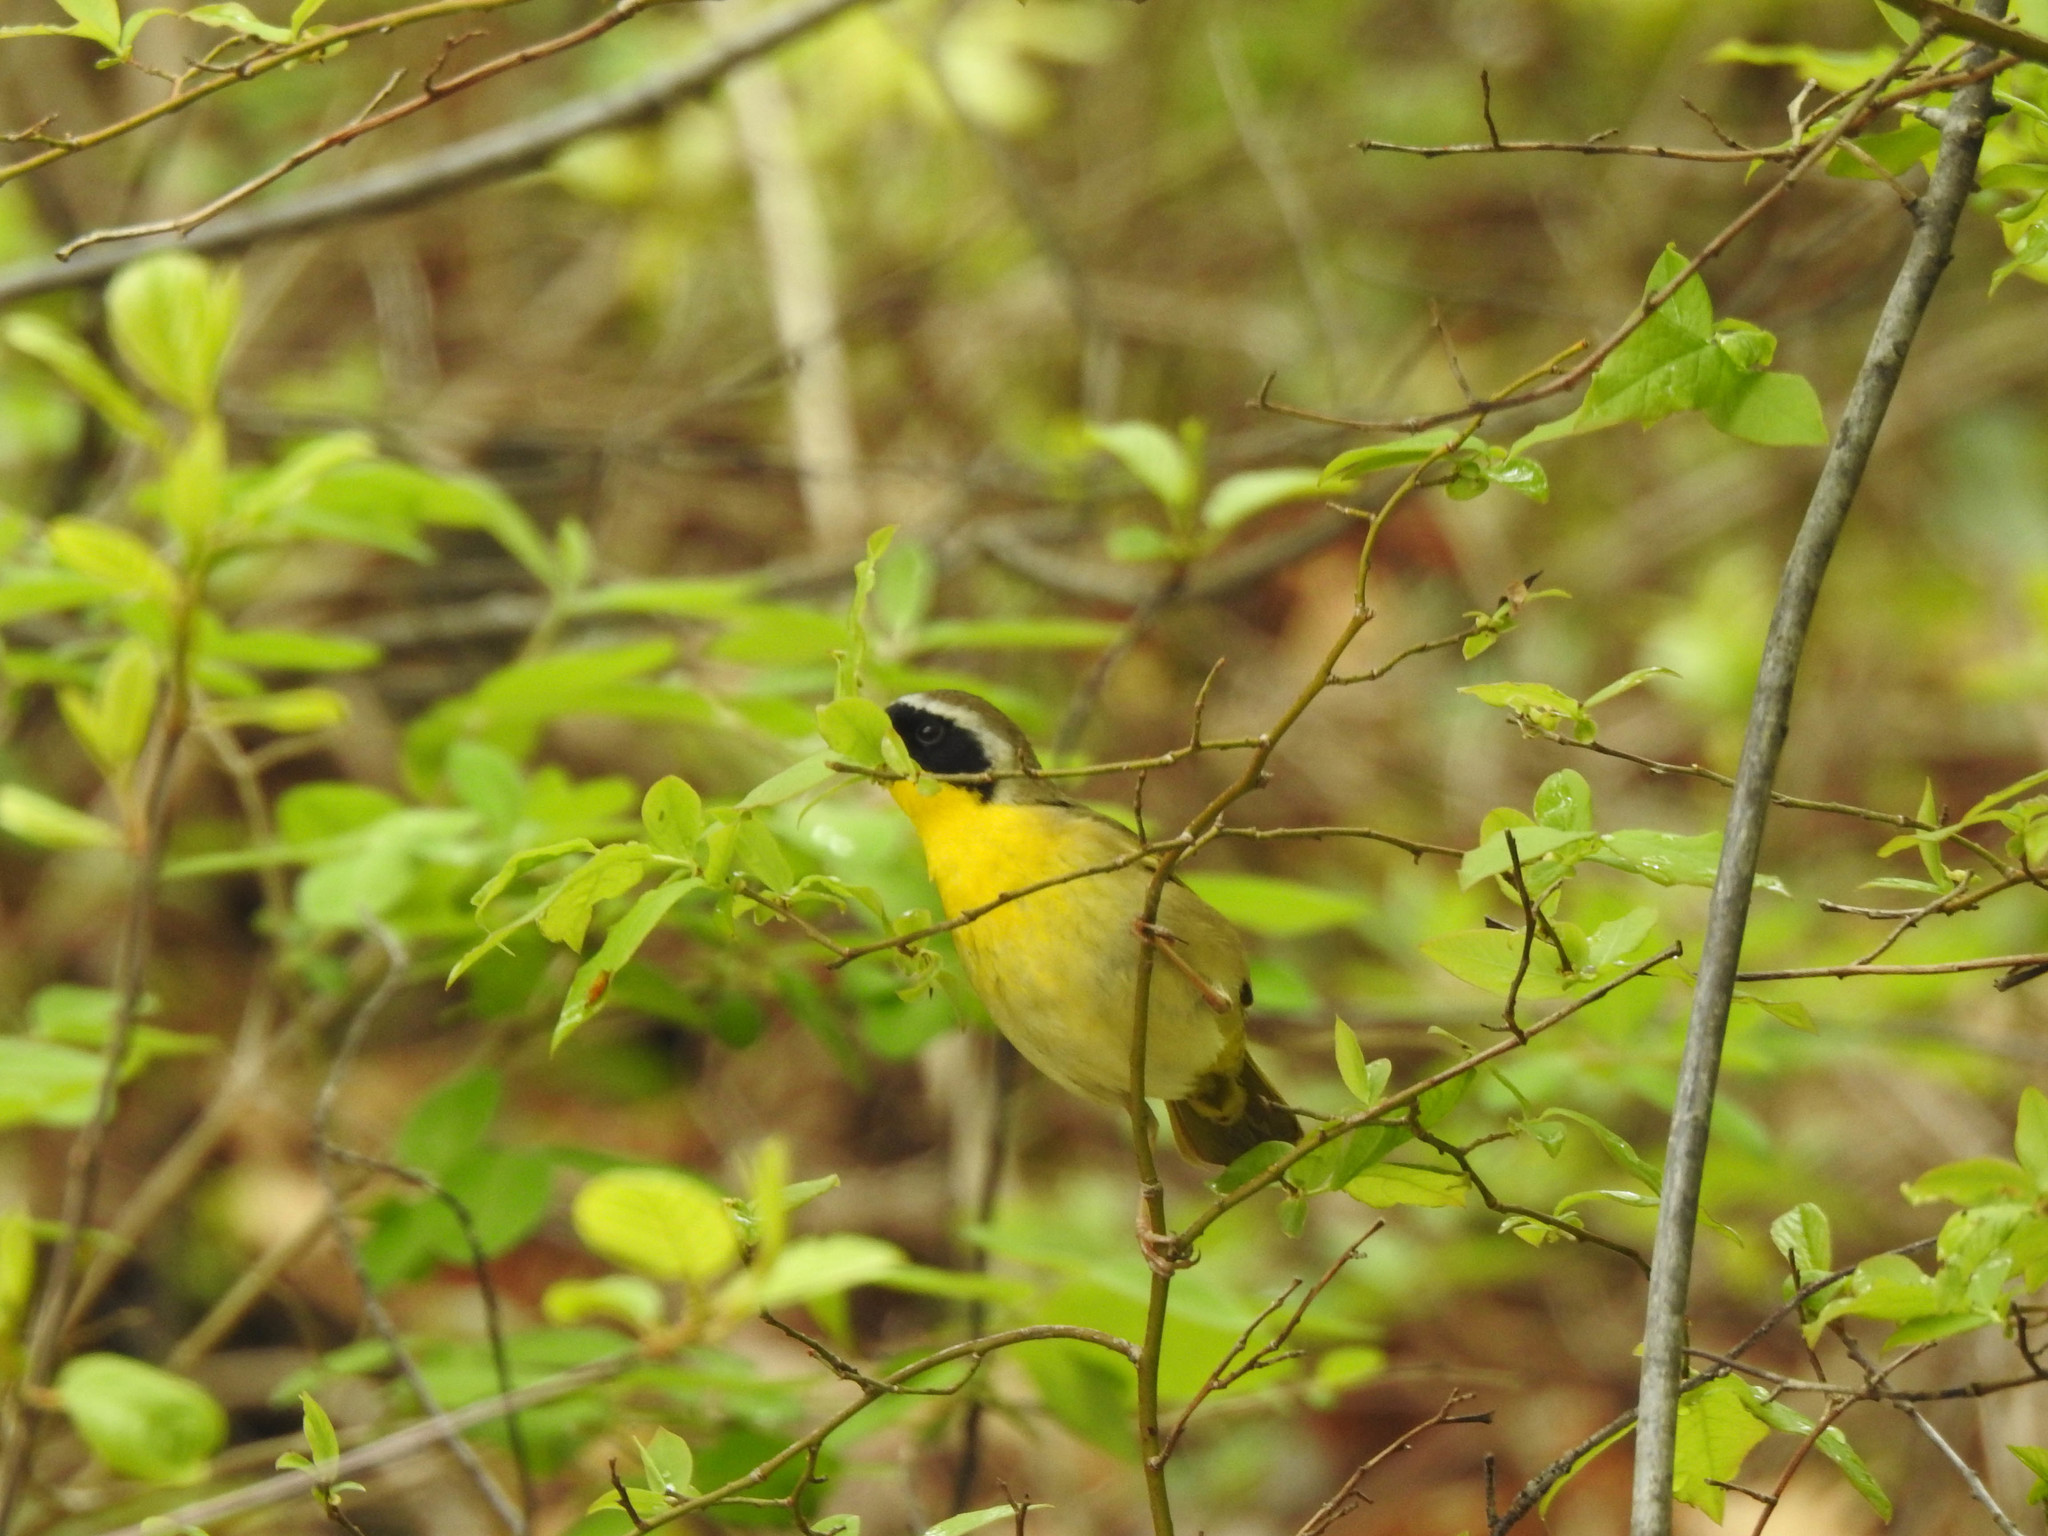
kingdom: Animalia
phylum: Chordata
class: Aves
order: Passeriformes
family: Parulidae
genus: Geothlypis
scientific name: Geothlypis trichas
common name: Common yellowthroat
